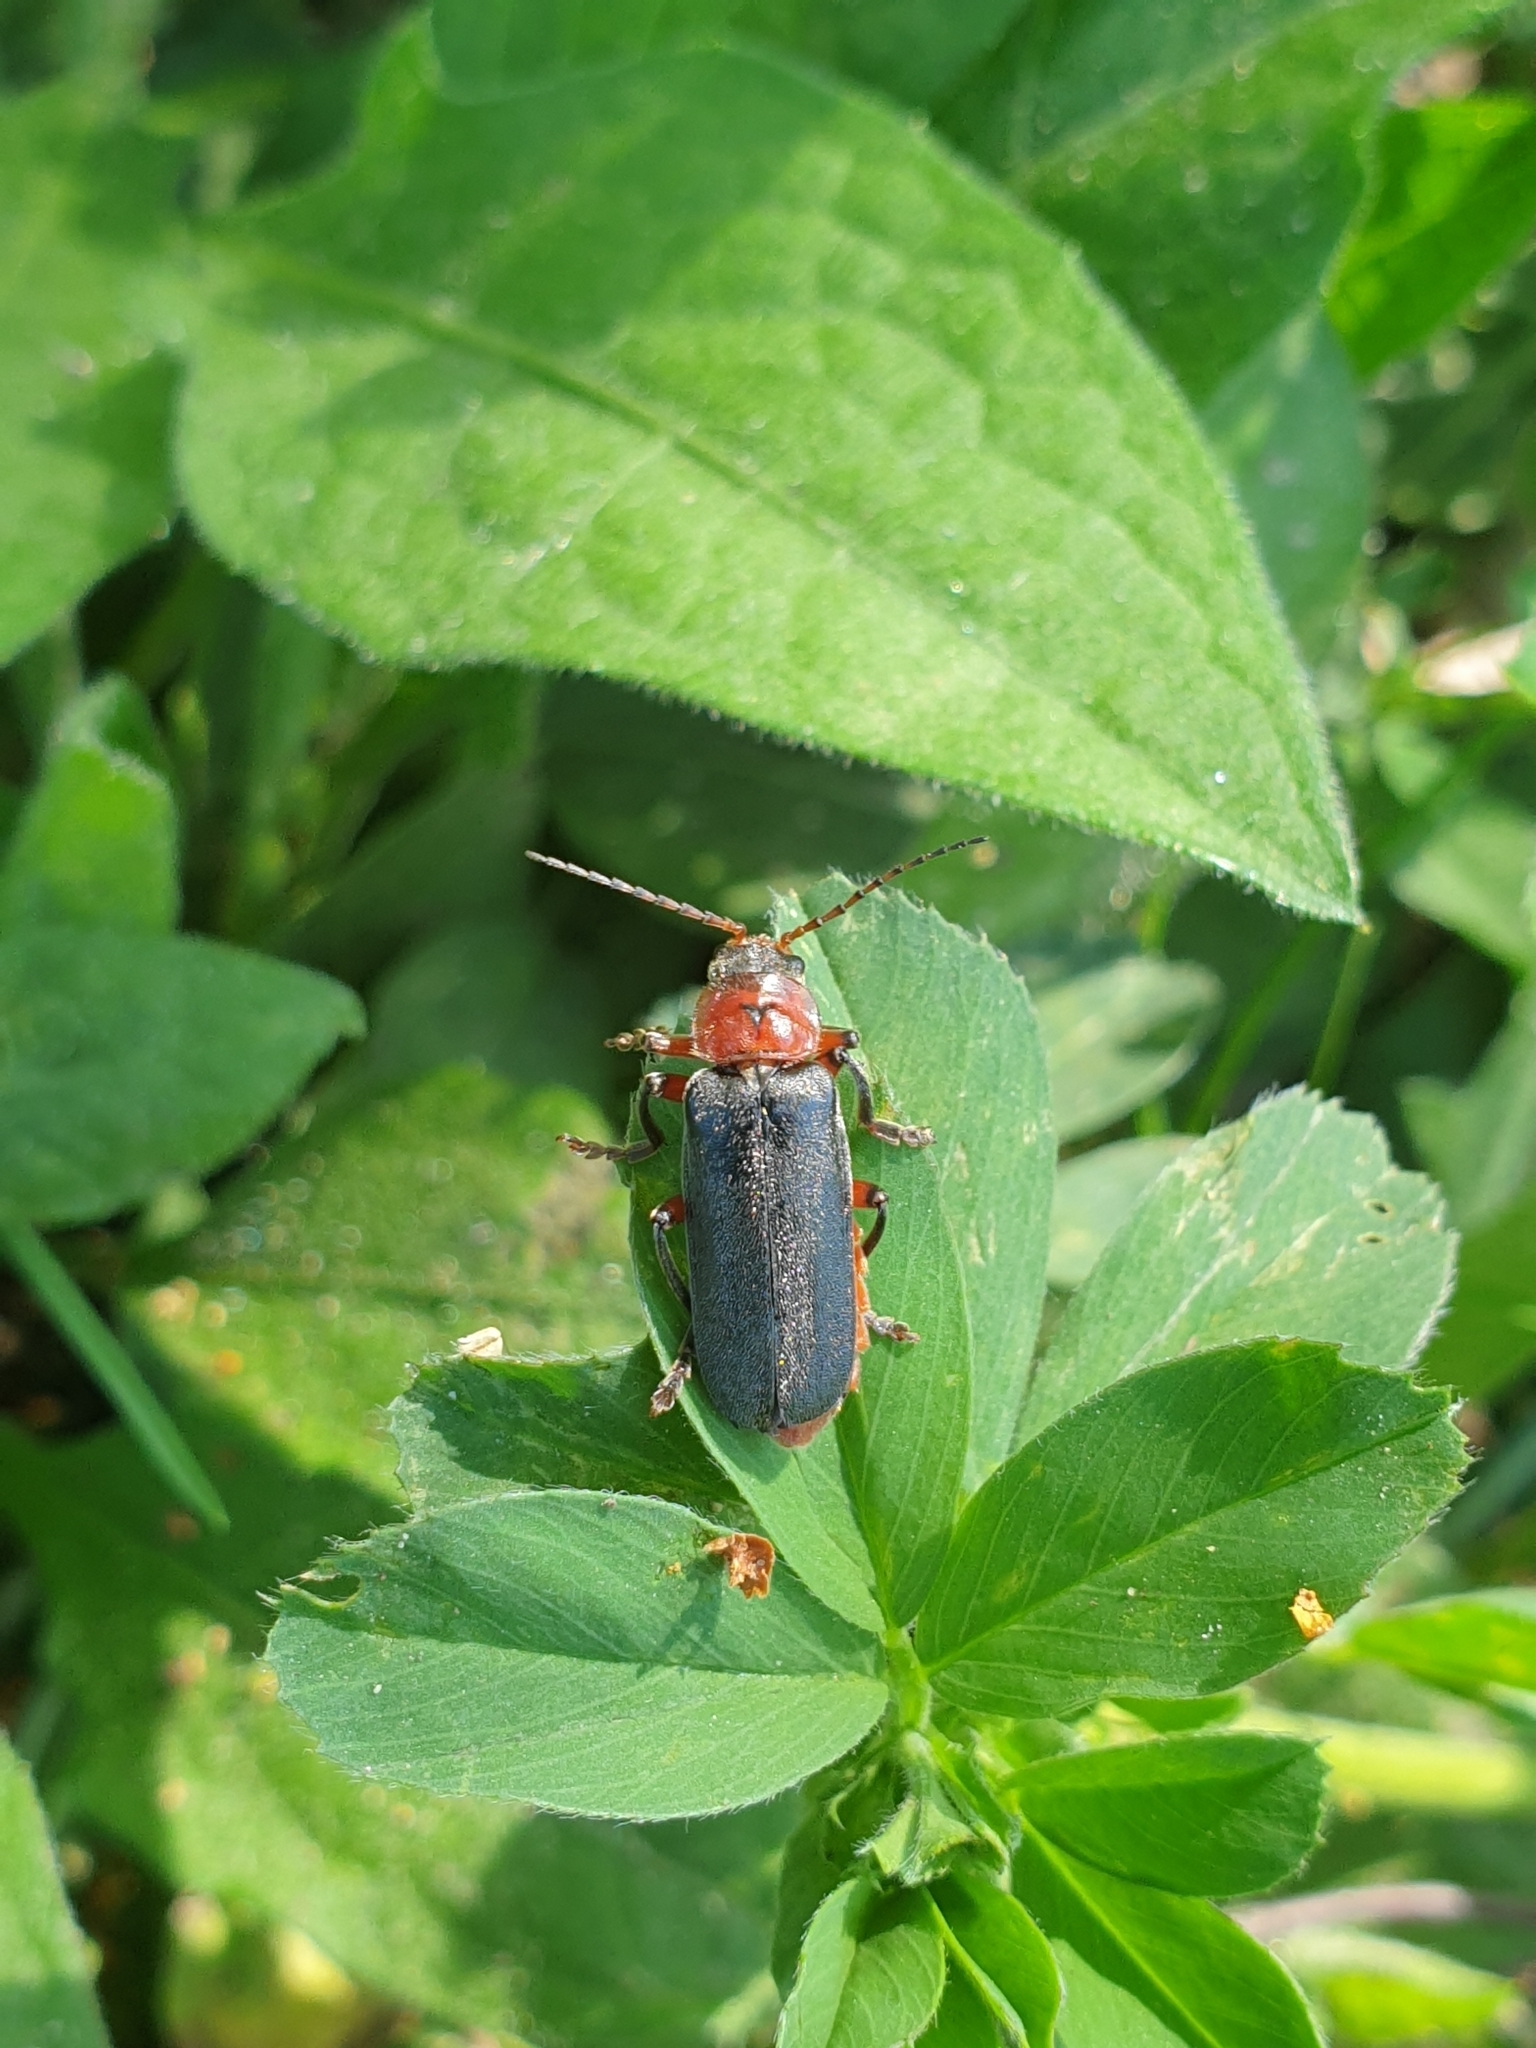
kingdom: Animalia
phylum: Arthropoda
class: Insecta
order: Coleoptera
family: Cantharidae
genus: Cantharis
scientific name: Cantharis rustica
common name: Soldier beetle
